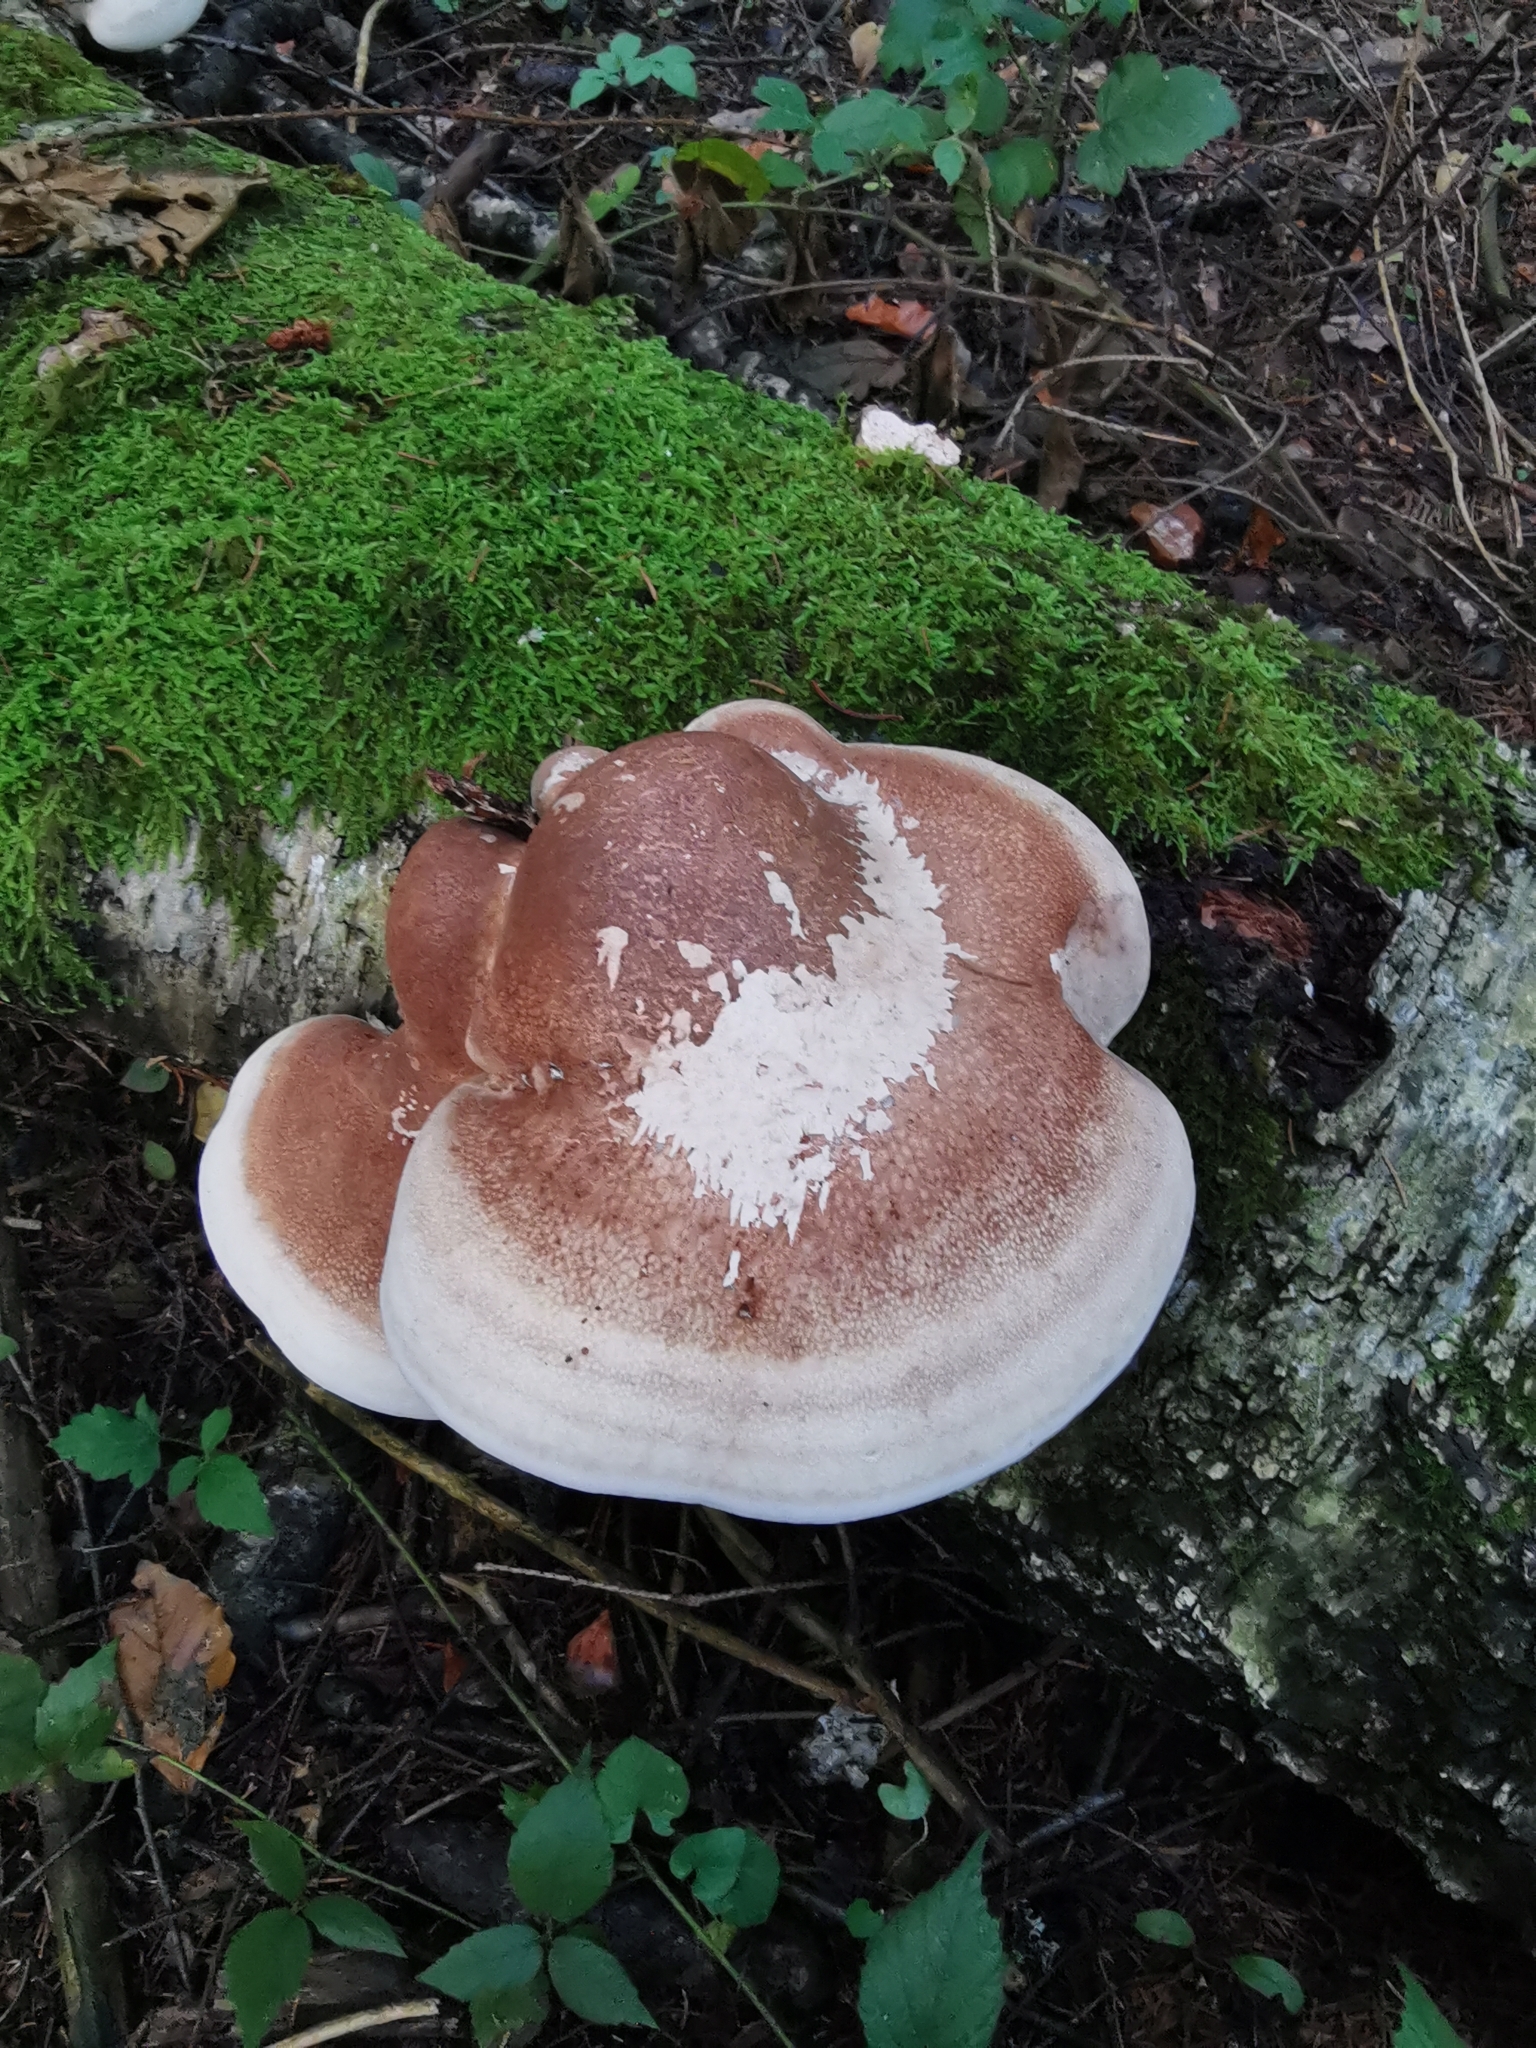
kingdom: Fungi
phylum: Basidiomycota
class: Agaricomycetes
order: Polyporales
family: Fomitopsidaceae
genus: Fomitopsis
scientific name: Fomitopsis betulina
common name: Birch polypore
